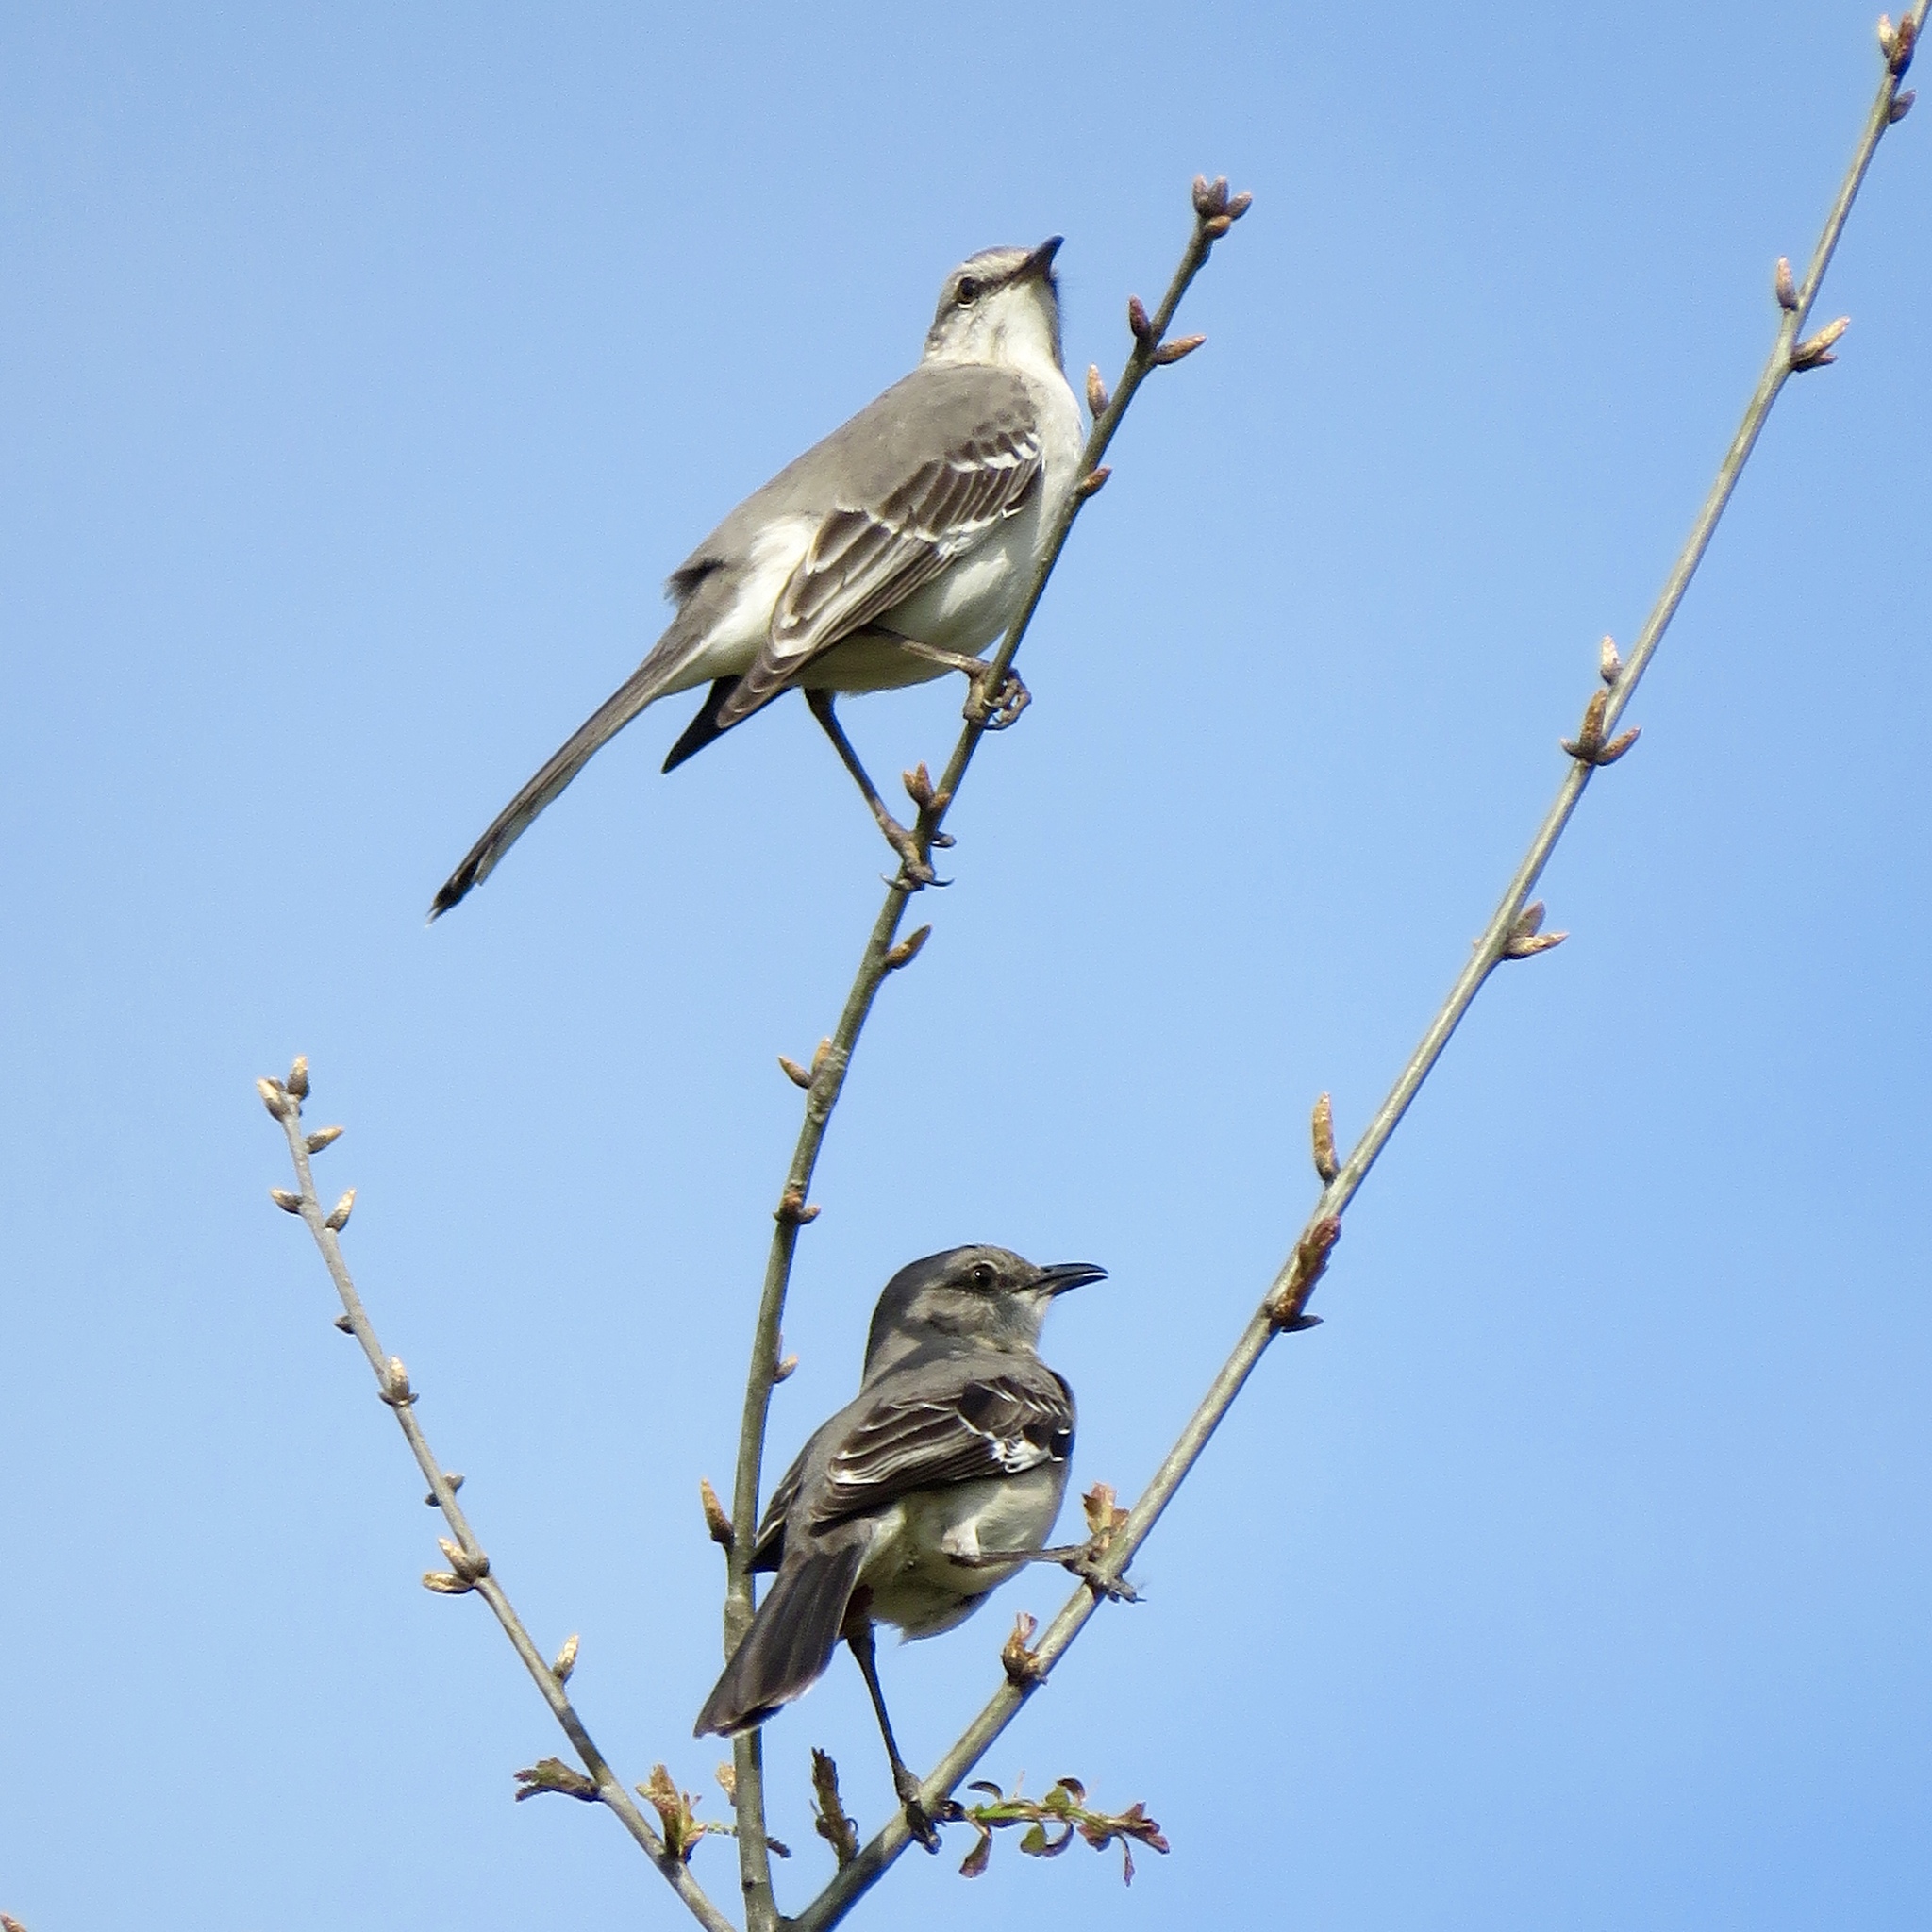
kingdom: Animalia
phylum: Chordata
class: Aves
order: Passeriformes
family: Mimidae
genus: Mimus
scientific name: Mimus polyglottos
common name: Northern mockingbird
